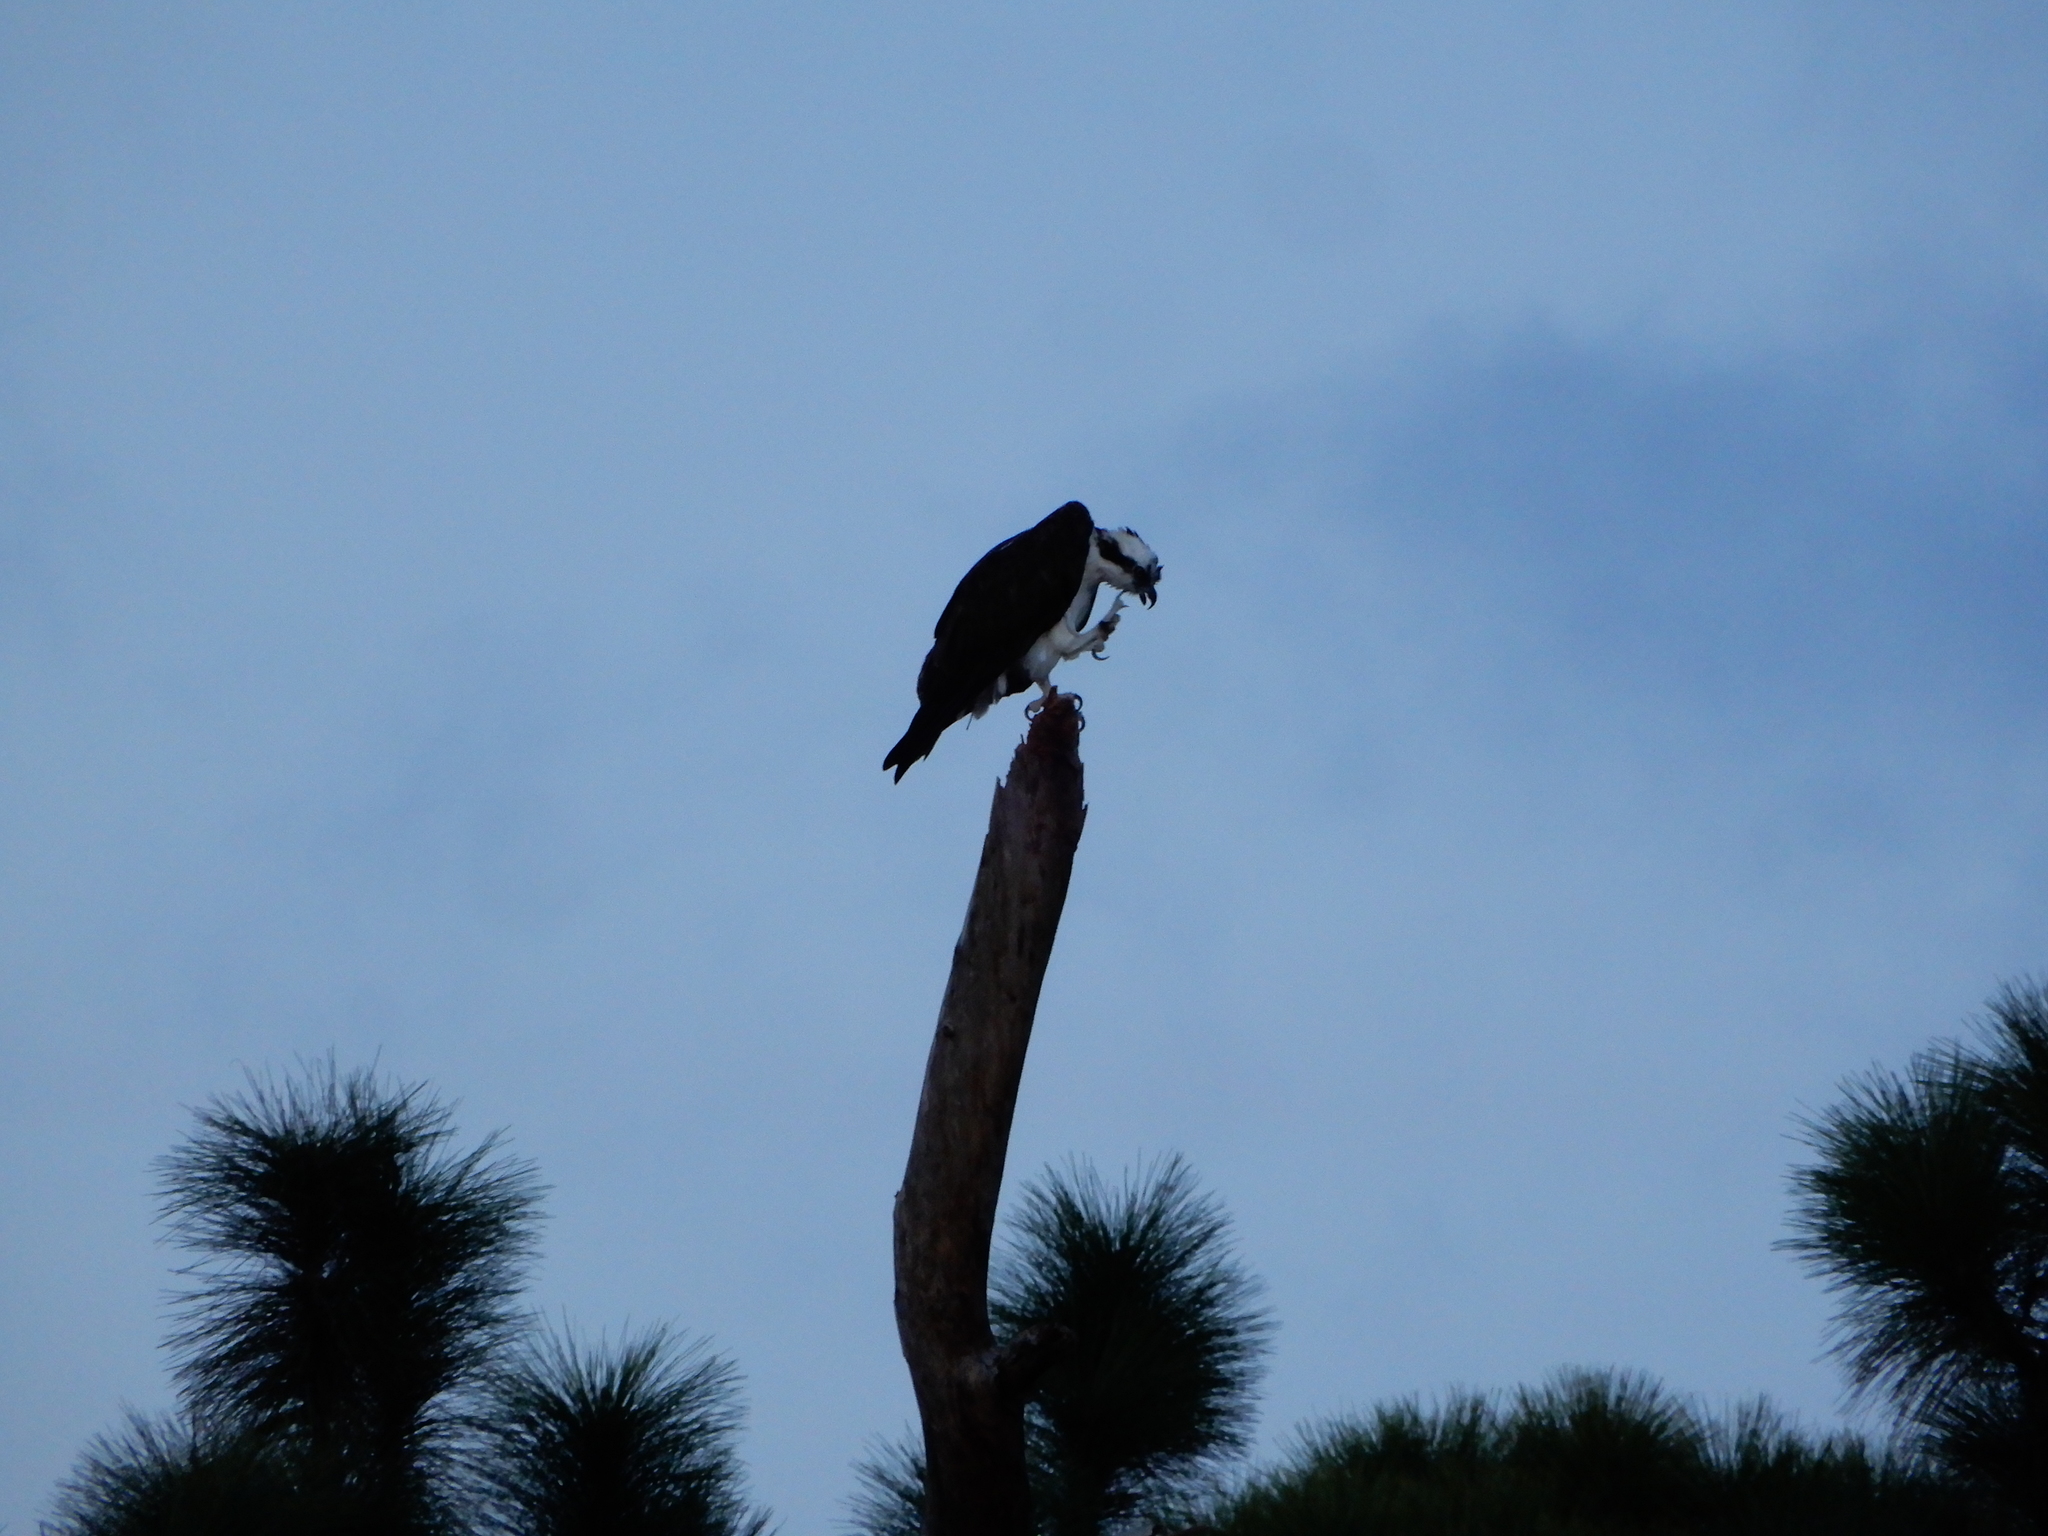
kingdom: Animalia
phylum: Chordata
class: Aves
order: Accipitriformes
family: Pandionidae
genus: Pandion
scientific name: Pandion haliaetus
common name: Osprey
